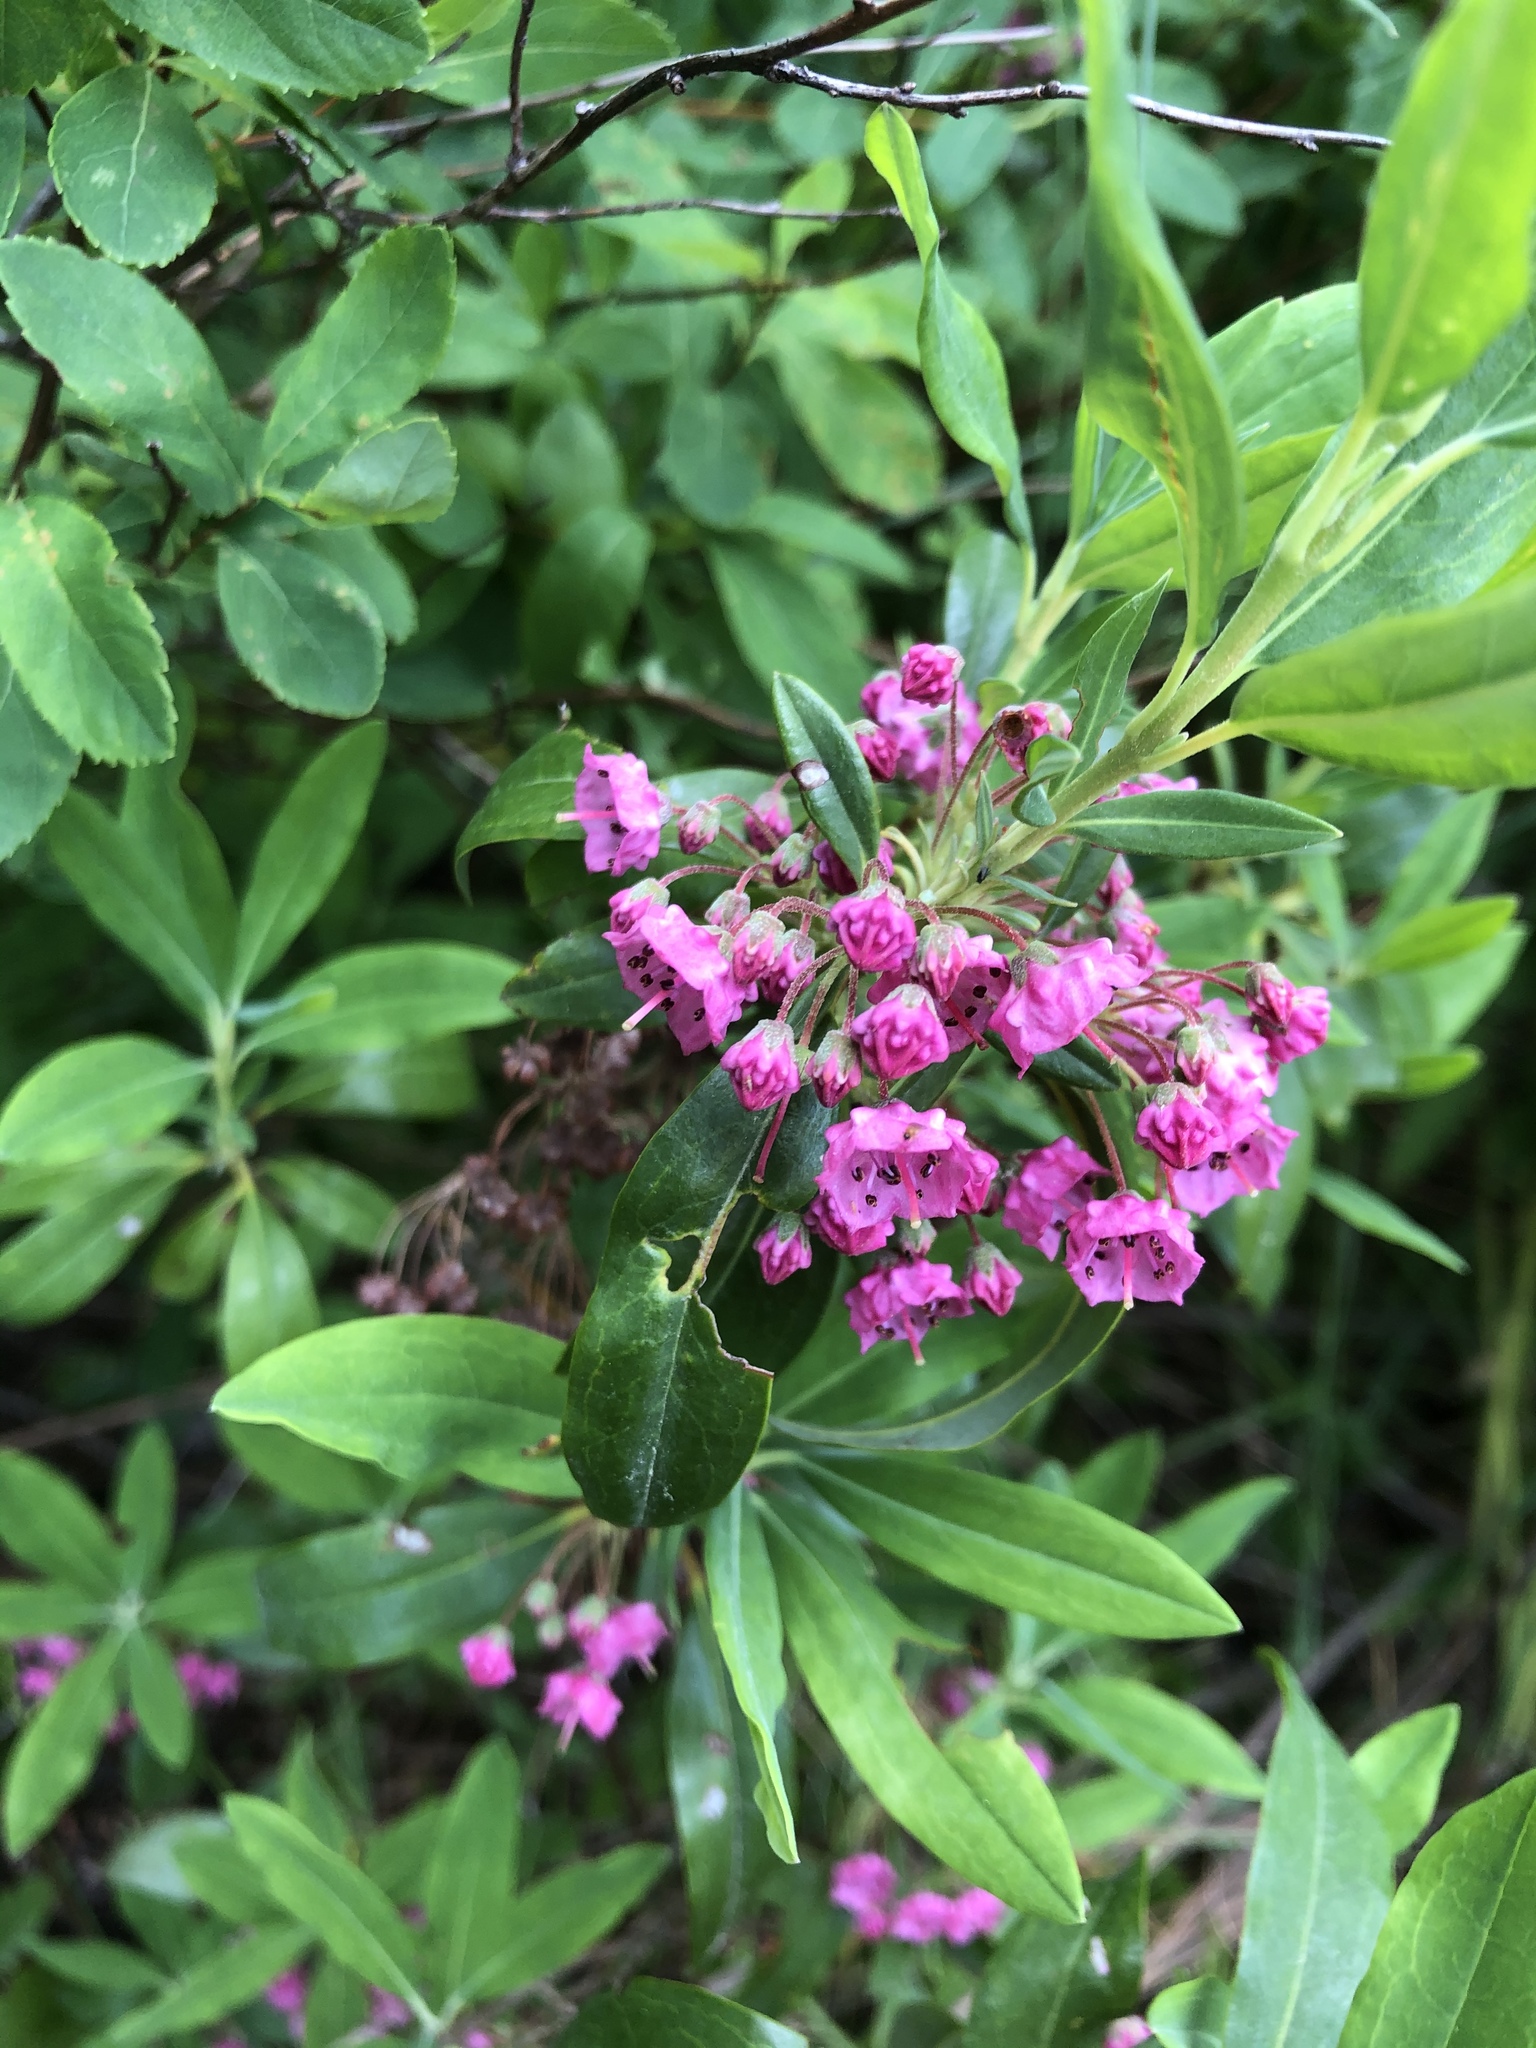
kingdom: Plantae
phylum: Tracheophyta
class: Magnoliopsida
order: Ericales
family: Ericaceae
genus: Kalmia
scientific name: Kalmia angustifolia
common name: Sheep-laurel
